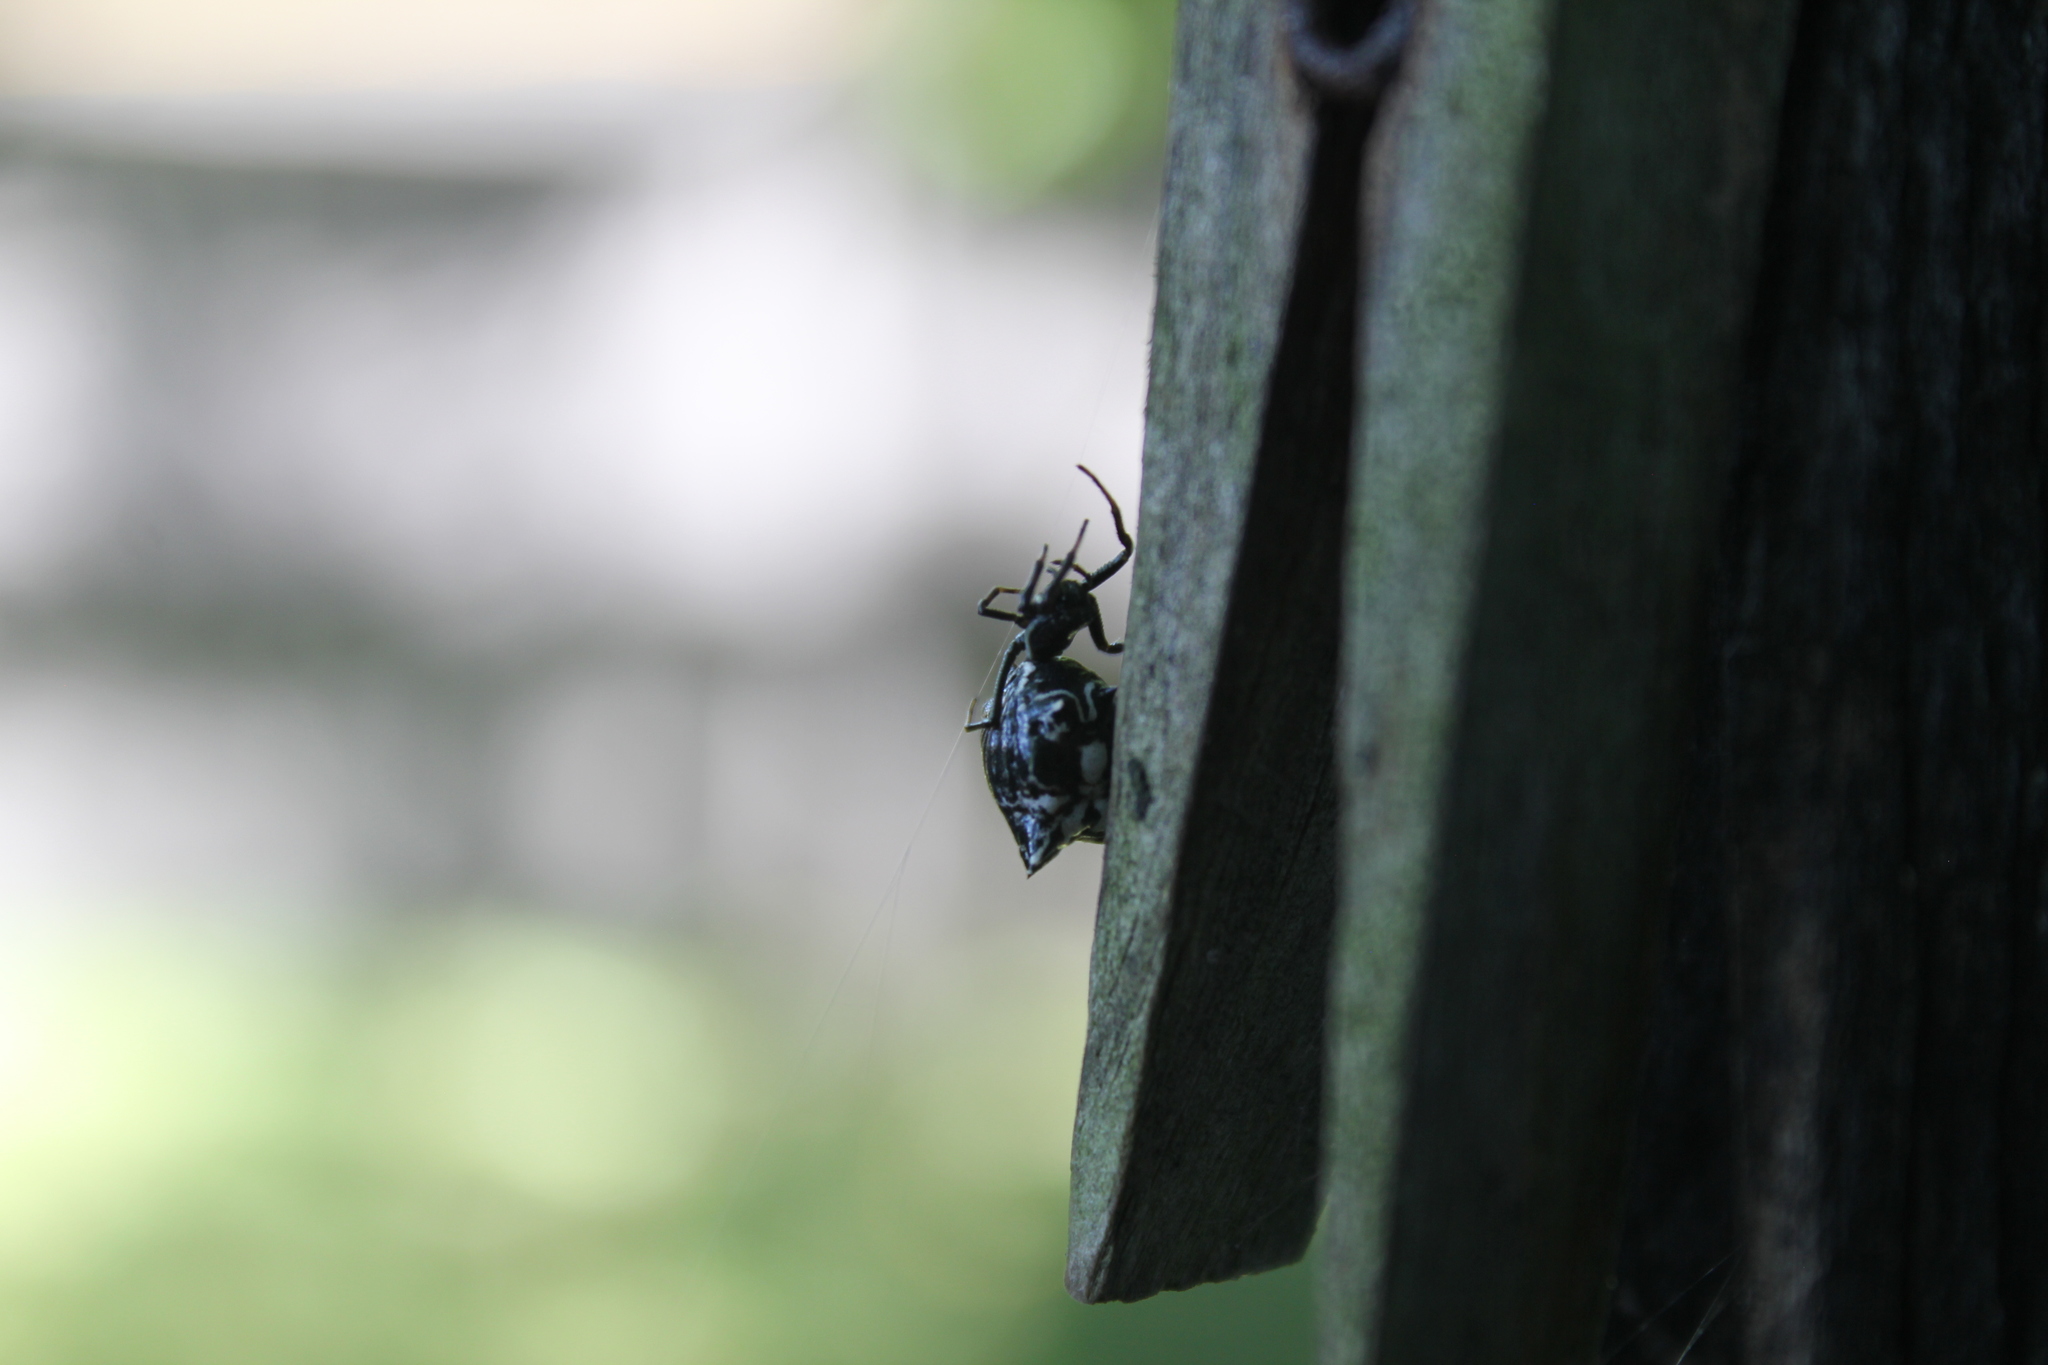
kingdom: Animalia
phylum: Arthropoda
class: Arachnida
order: Araneae
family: Araneidae
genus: Micrathena
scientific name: Micrathena gracilis
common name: Orb weavers
